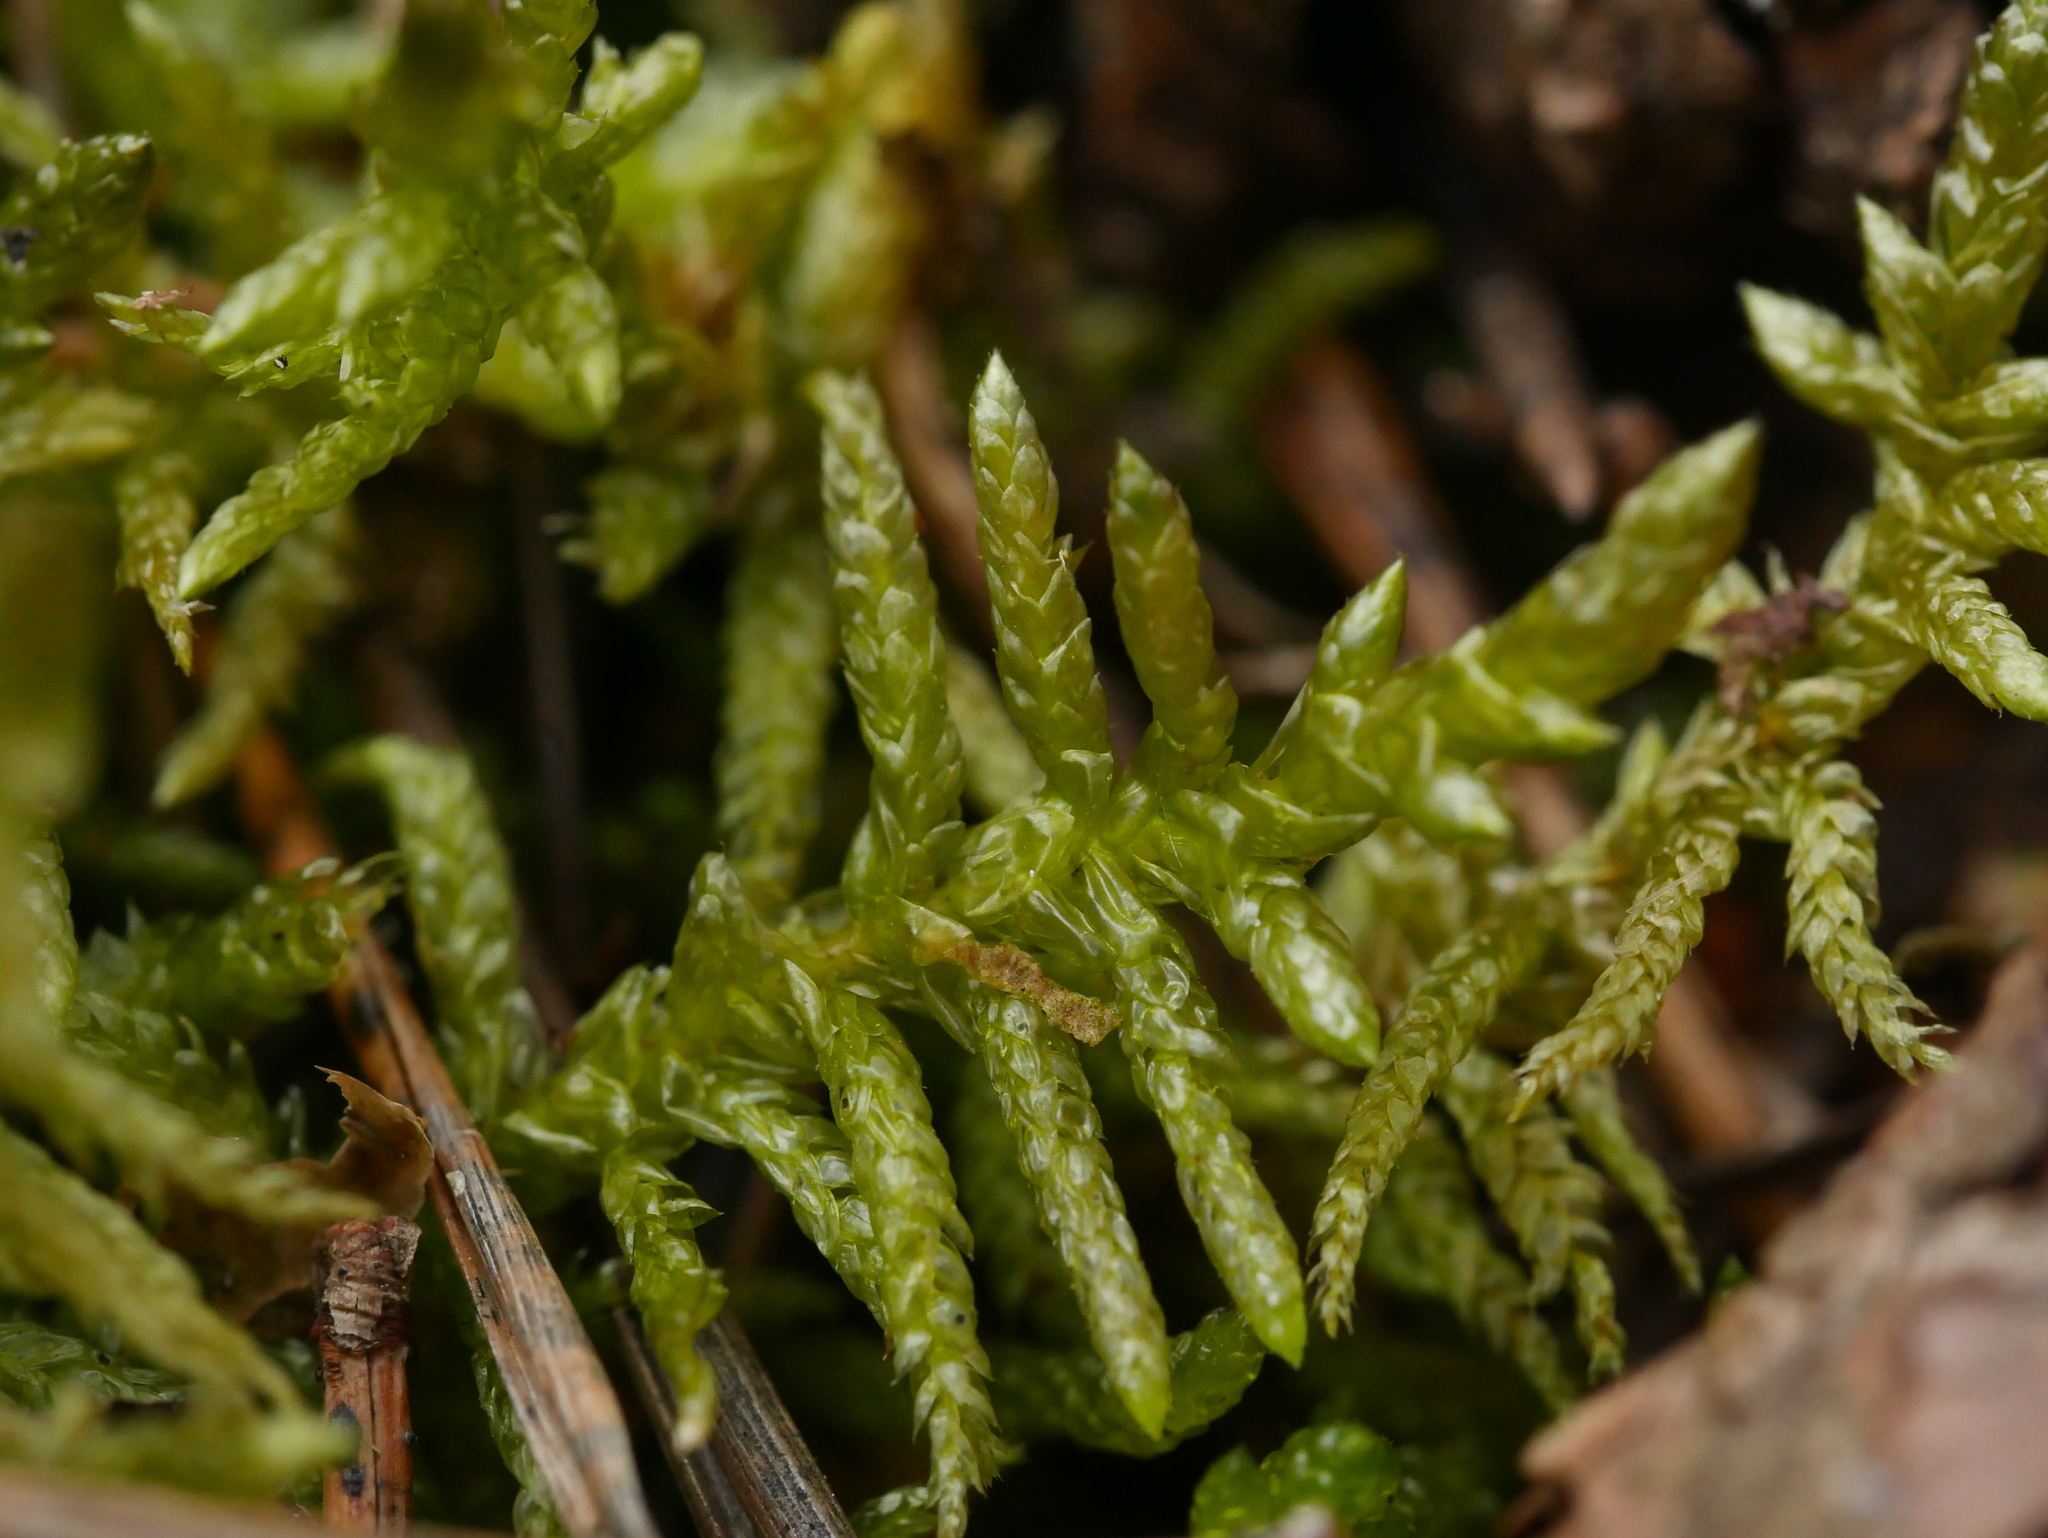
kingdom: Plantae
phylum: Bryophyta
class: Bryopsida
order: Hypnales
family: Brachytheciaceae
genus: Pseudoscleropodium
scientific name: Pseudoscleropodium purum
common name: Neat feather-moss
